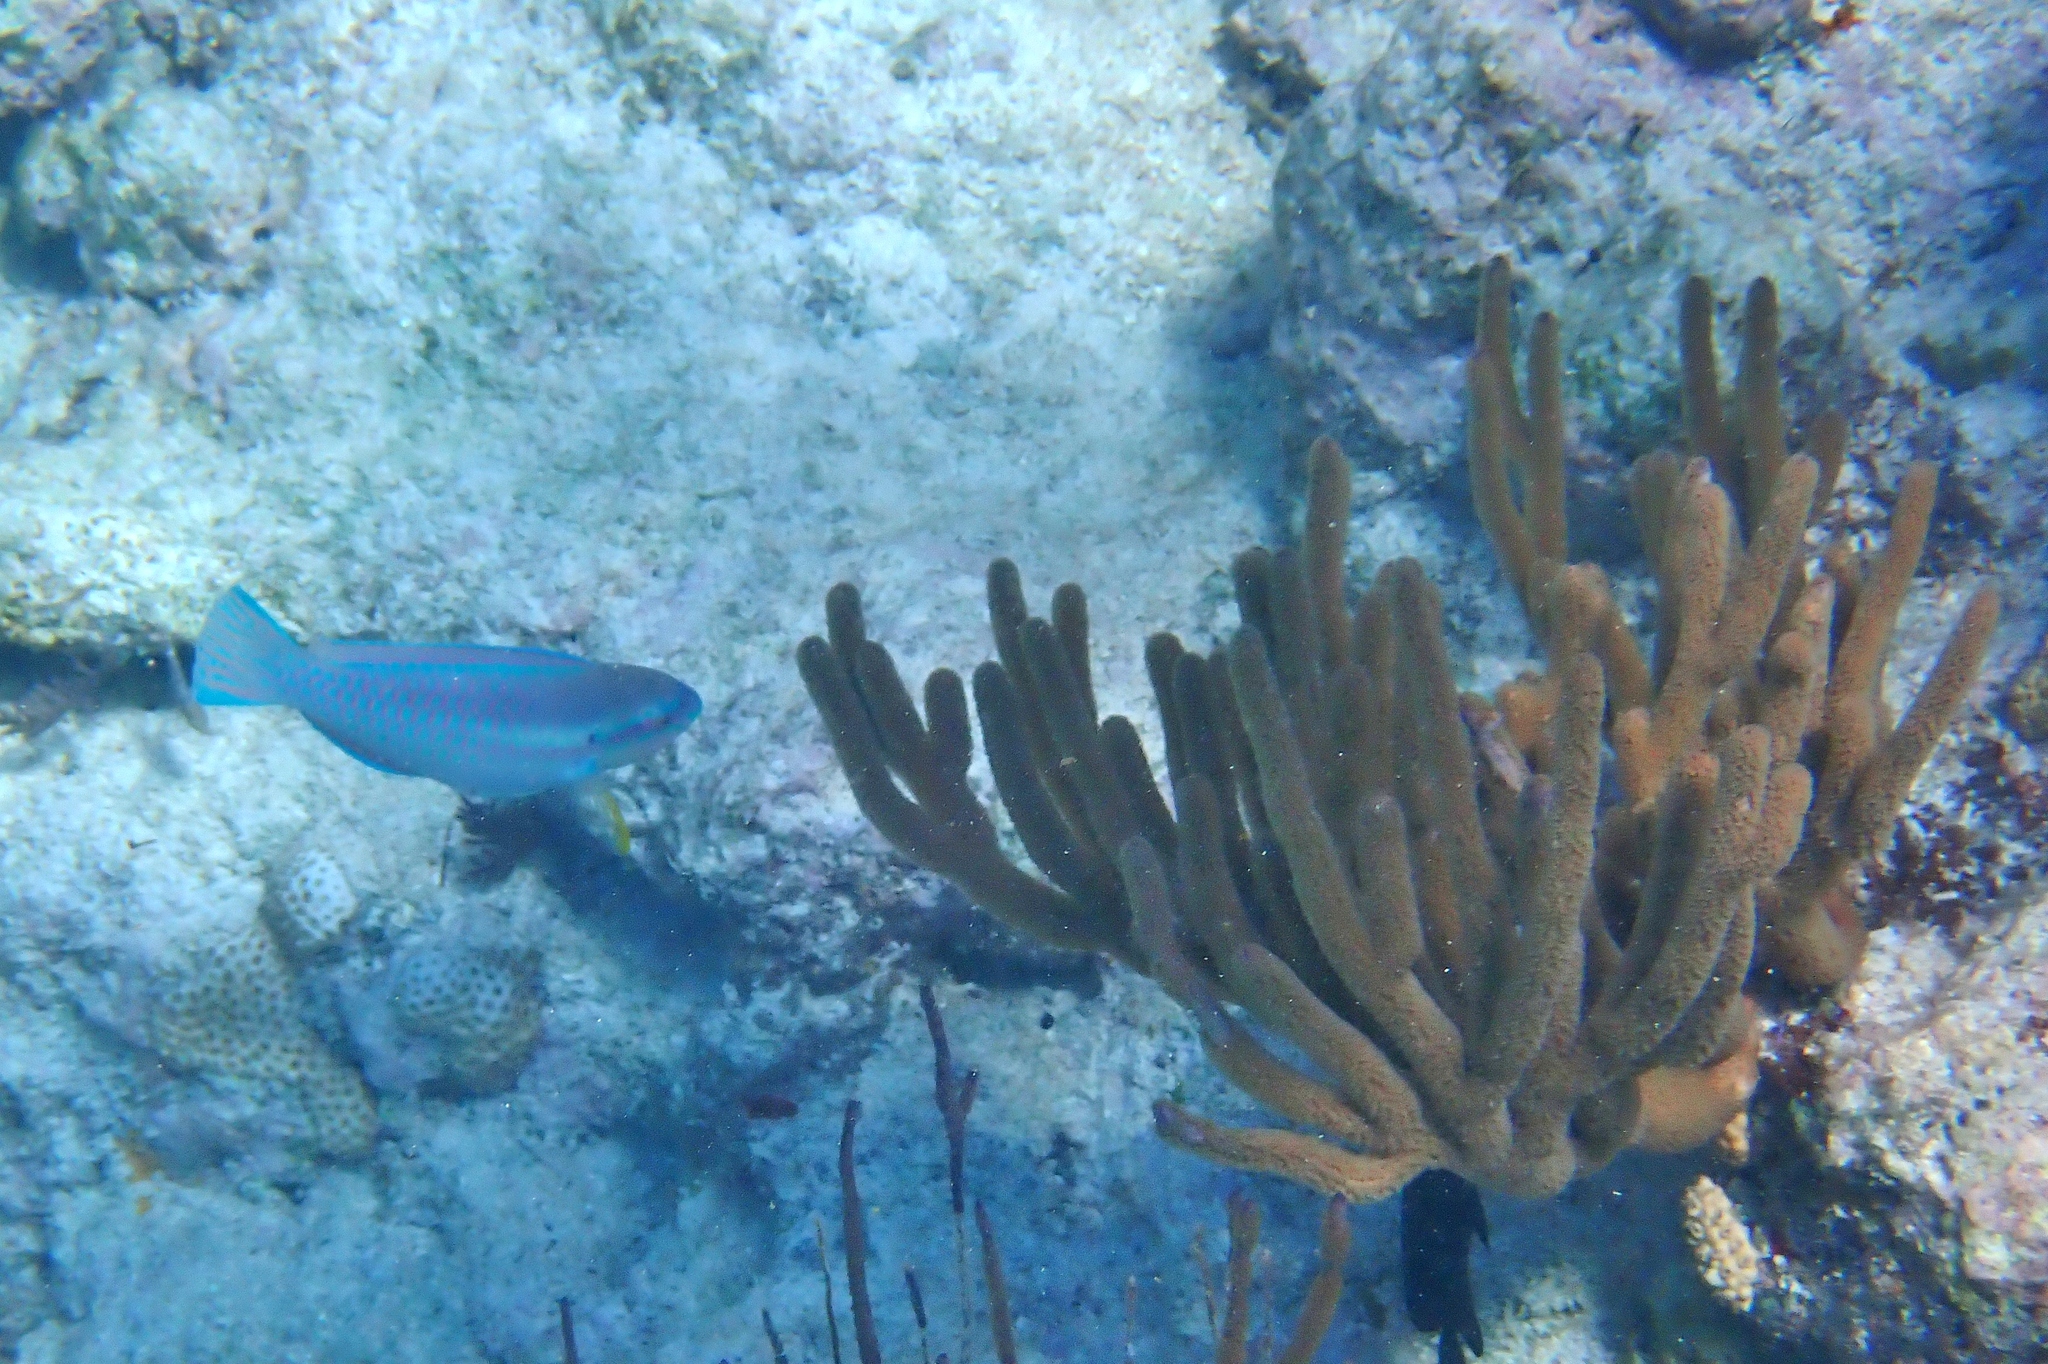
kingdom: Animalia
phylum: Chordata
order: Perciformes
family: Scaridae
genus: Scarus
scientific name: Scarus iseri
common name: Striped parrotfish
